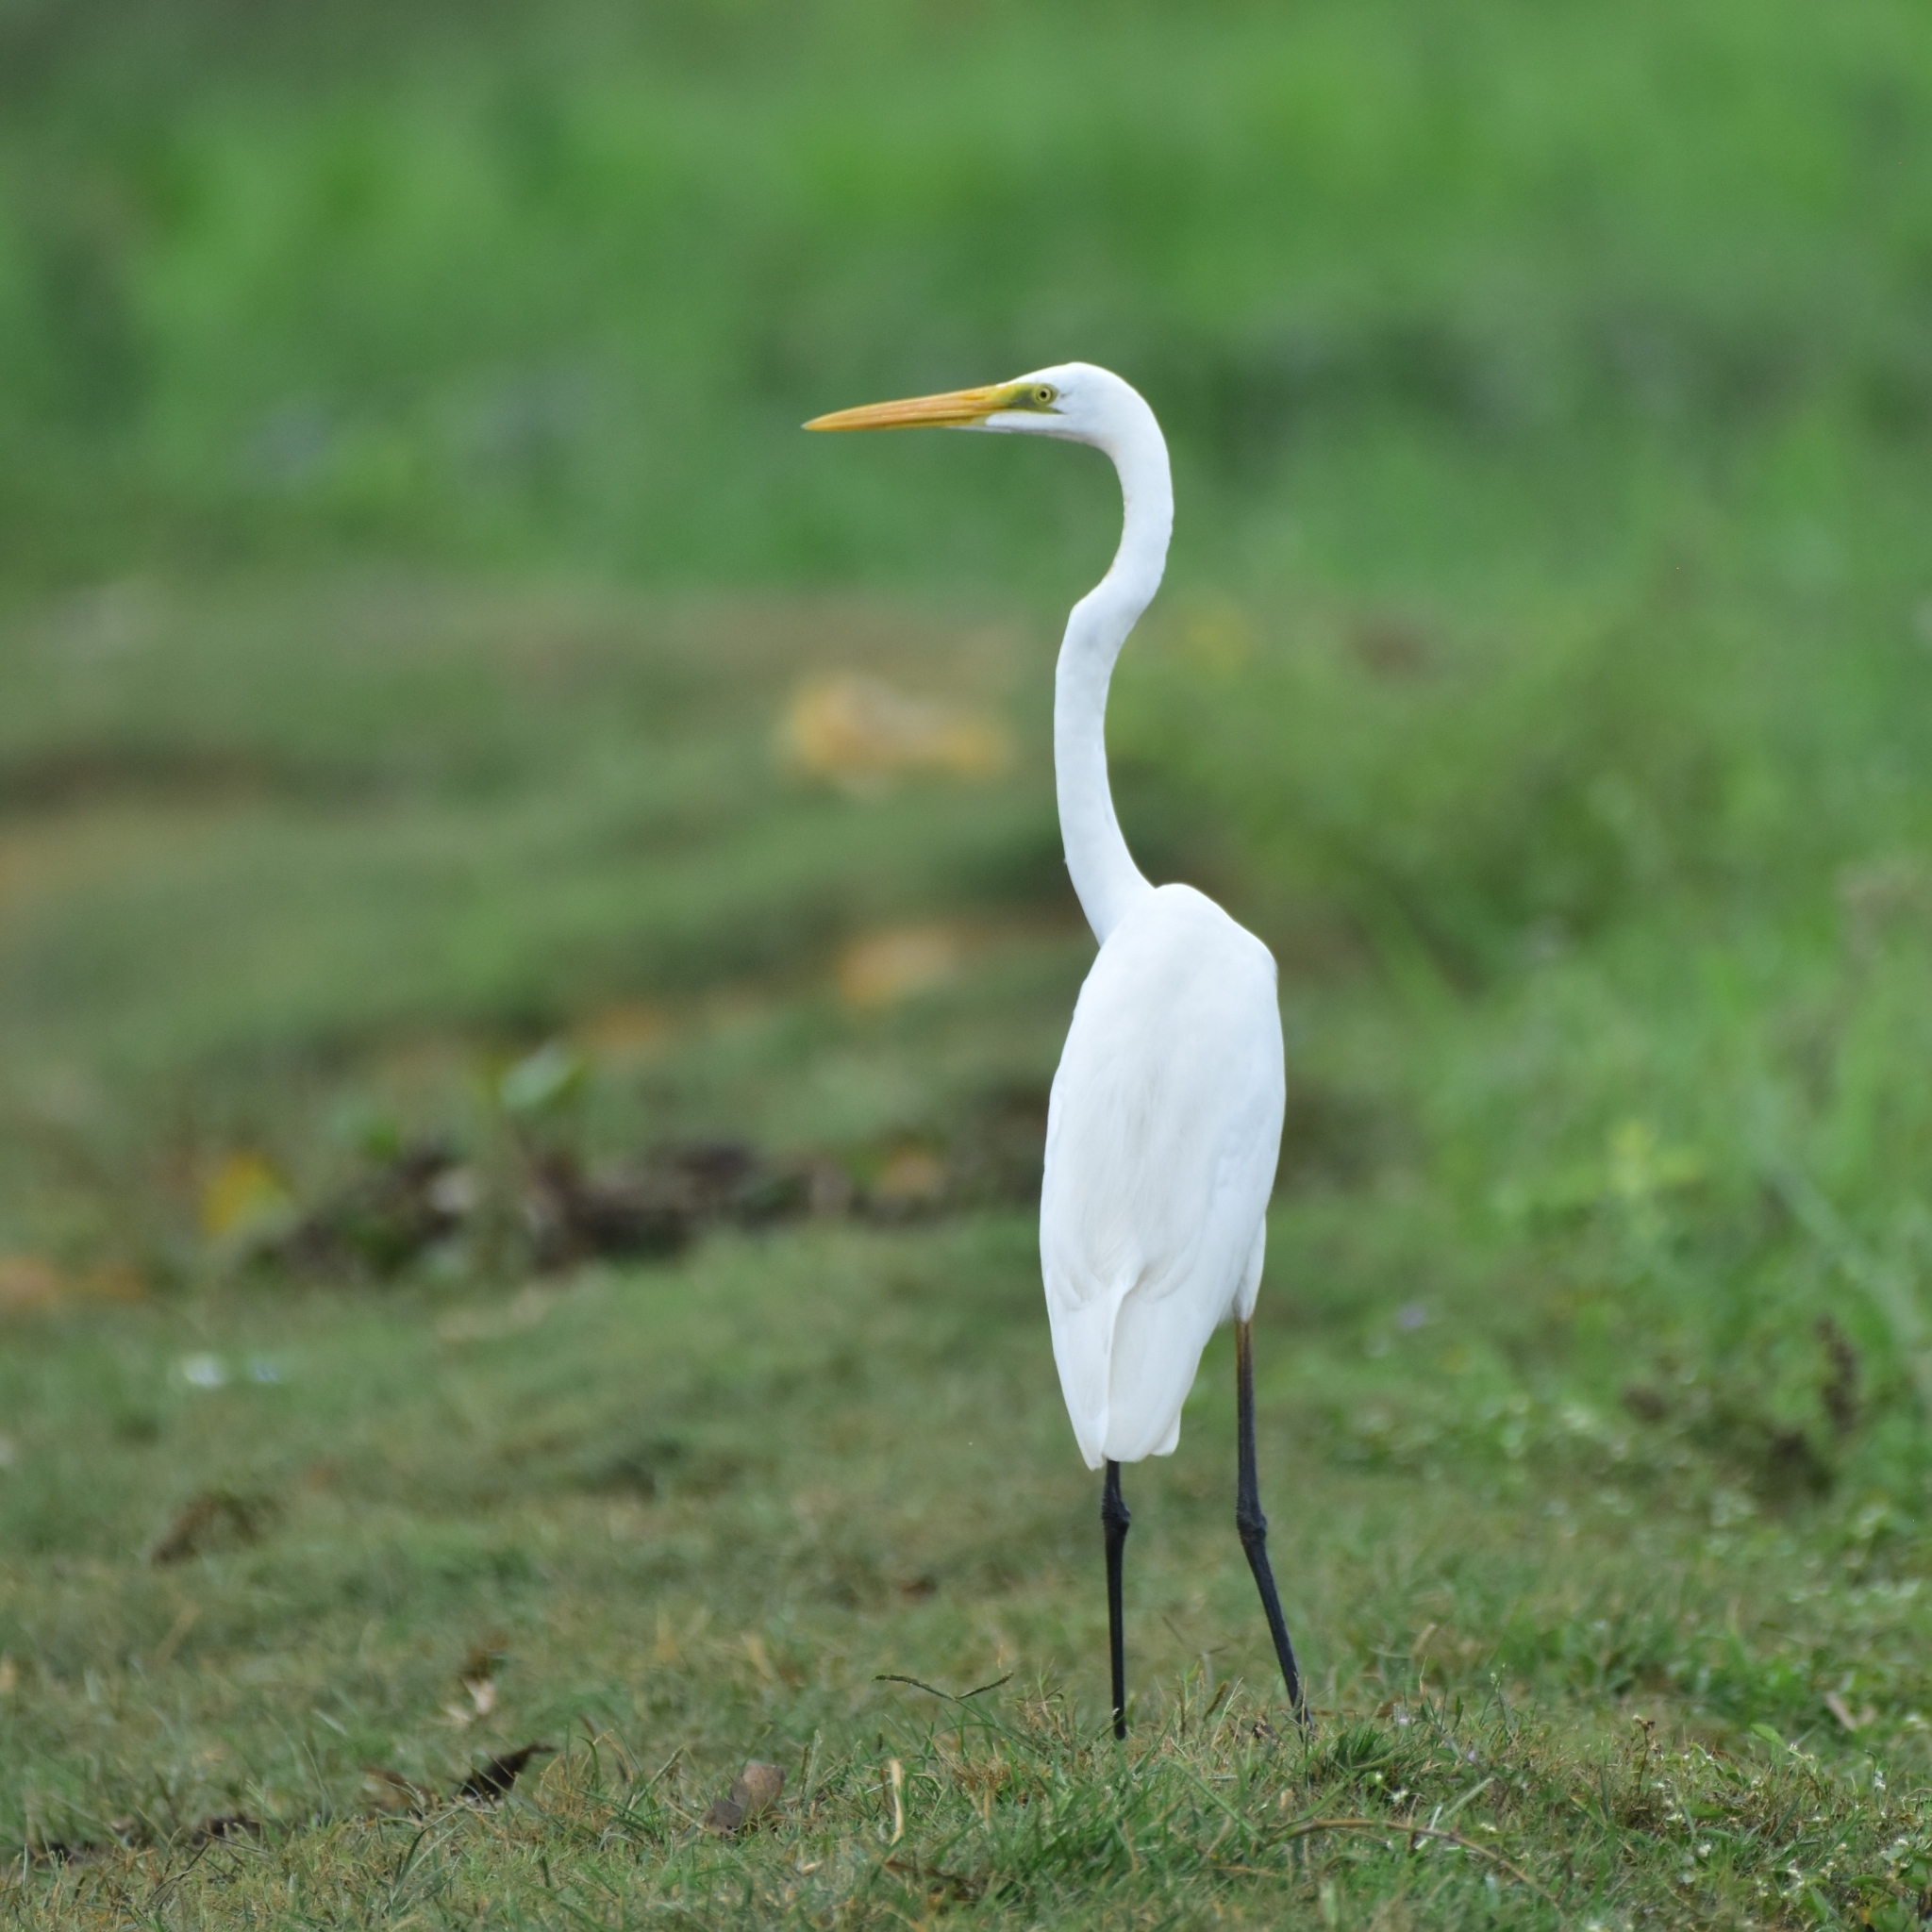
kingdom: Animalia
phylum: Chordata
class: Aves
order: Pelecaniformes
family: Ardeidae
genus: Ardea
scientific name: Ardea alba
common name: Great egret
